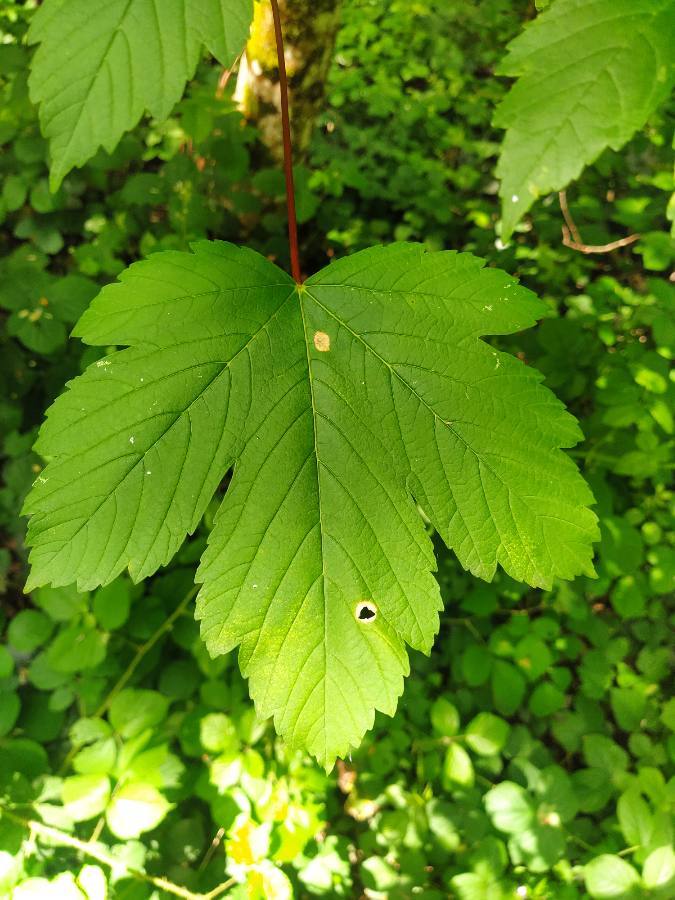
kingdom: Plantae
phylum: Tracheophyta
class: Magnoliopsida
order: Sapindales
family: Sapindaceae
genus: Acer
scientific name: Acer pseudoplatanus
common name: Sycamore
